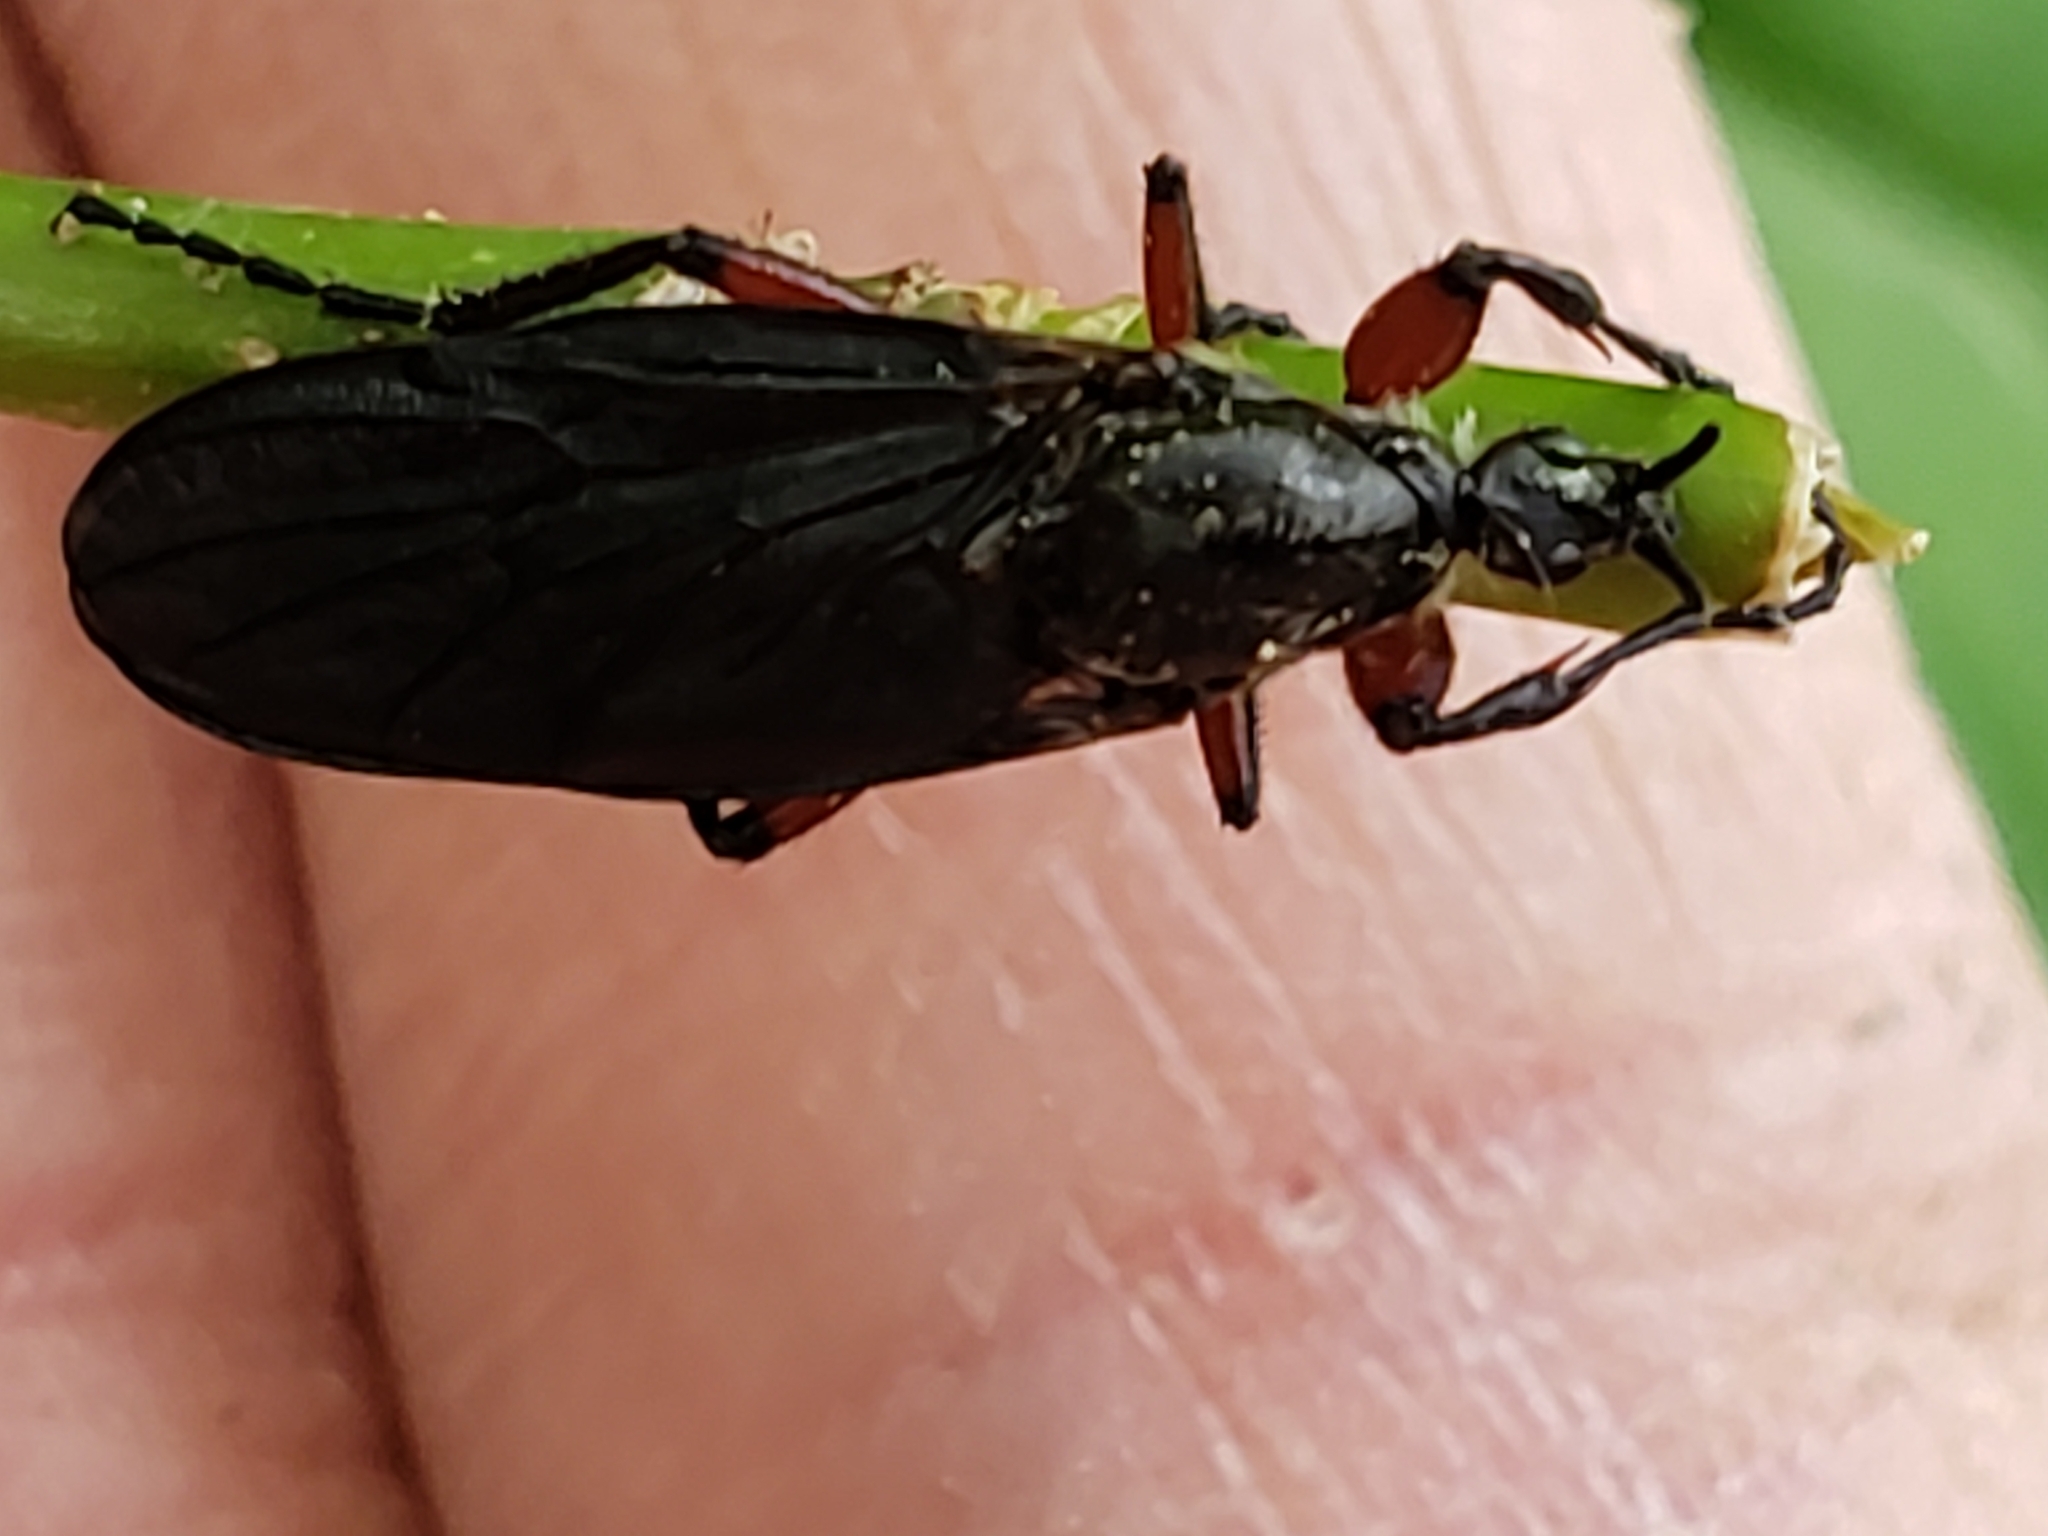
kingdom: Animalia
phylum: Arthropoda
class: Insecta
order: Diptera
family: Bibionidae
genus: Bibio
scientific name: Bibio femoratus
